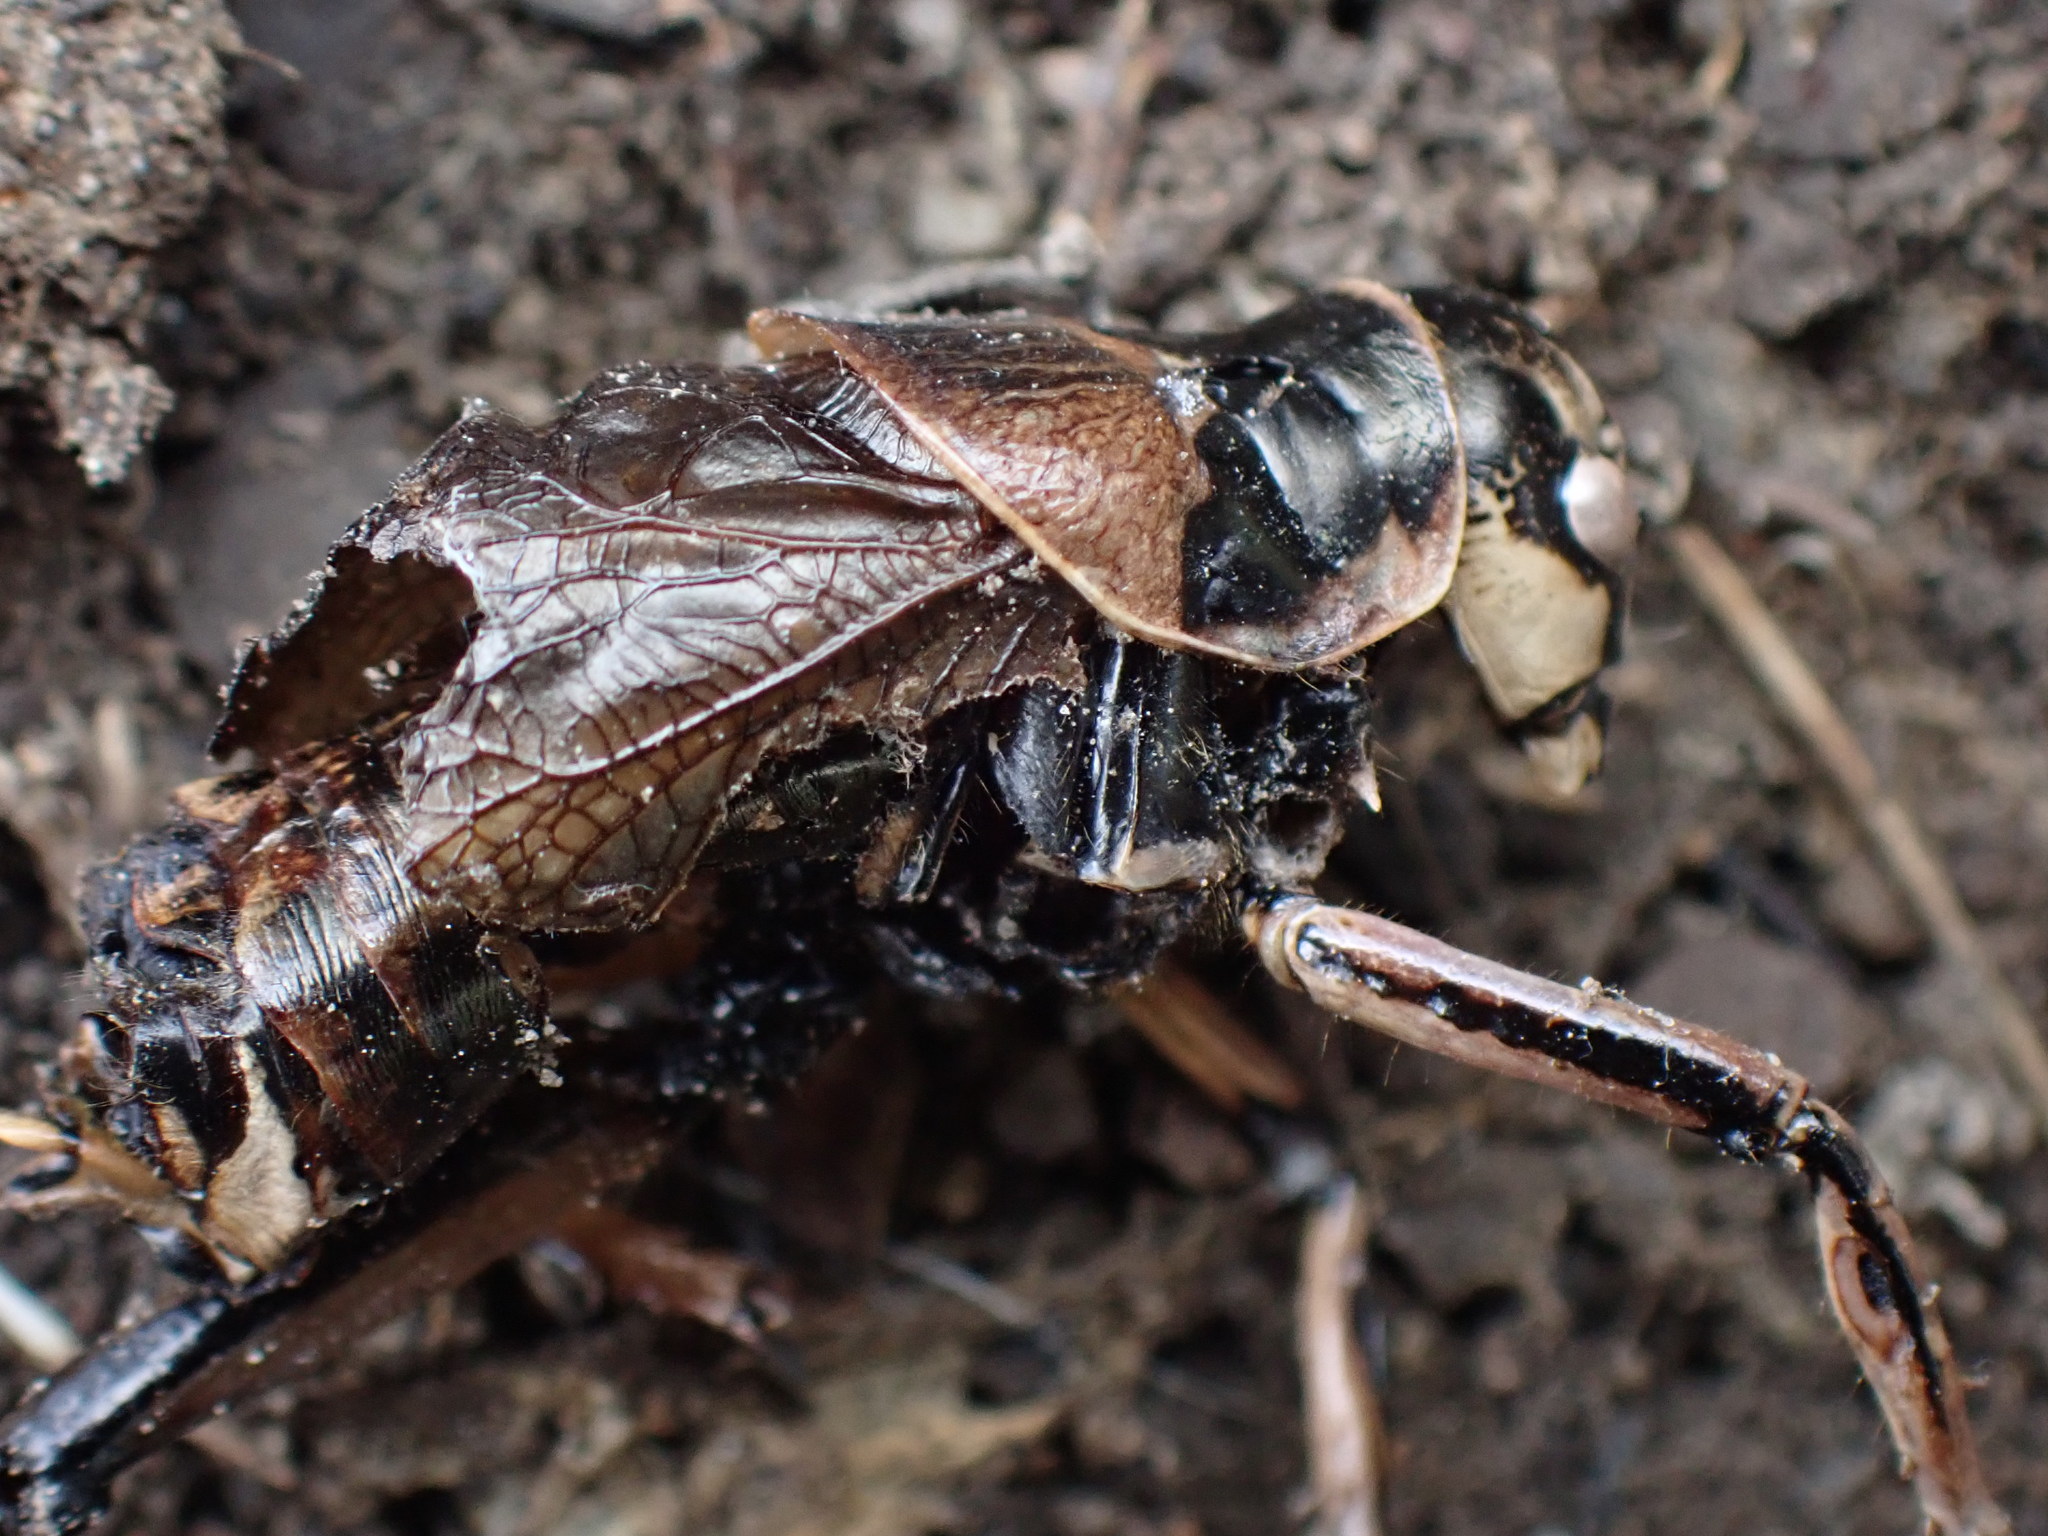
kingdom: Animalia
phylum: Arthropoda
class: Insecta
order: Orthoptera
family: Prophalangopsidae
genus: Cyphoderris
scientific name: Cyphoderris monstrosa
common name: Great grig
